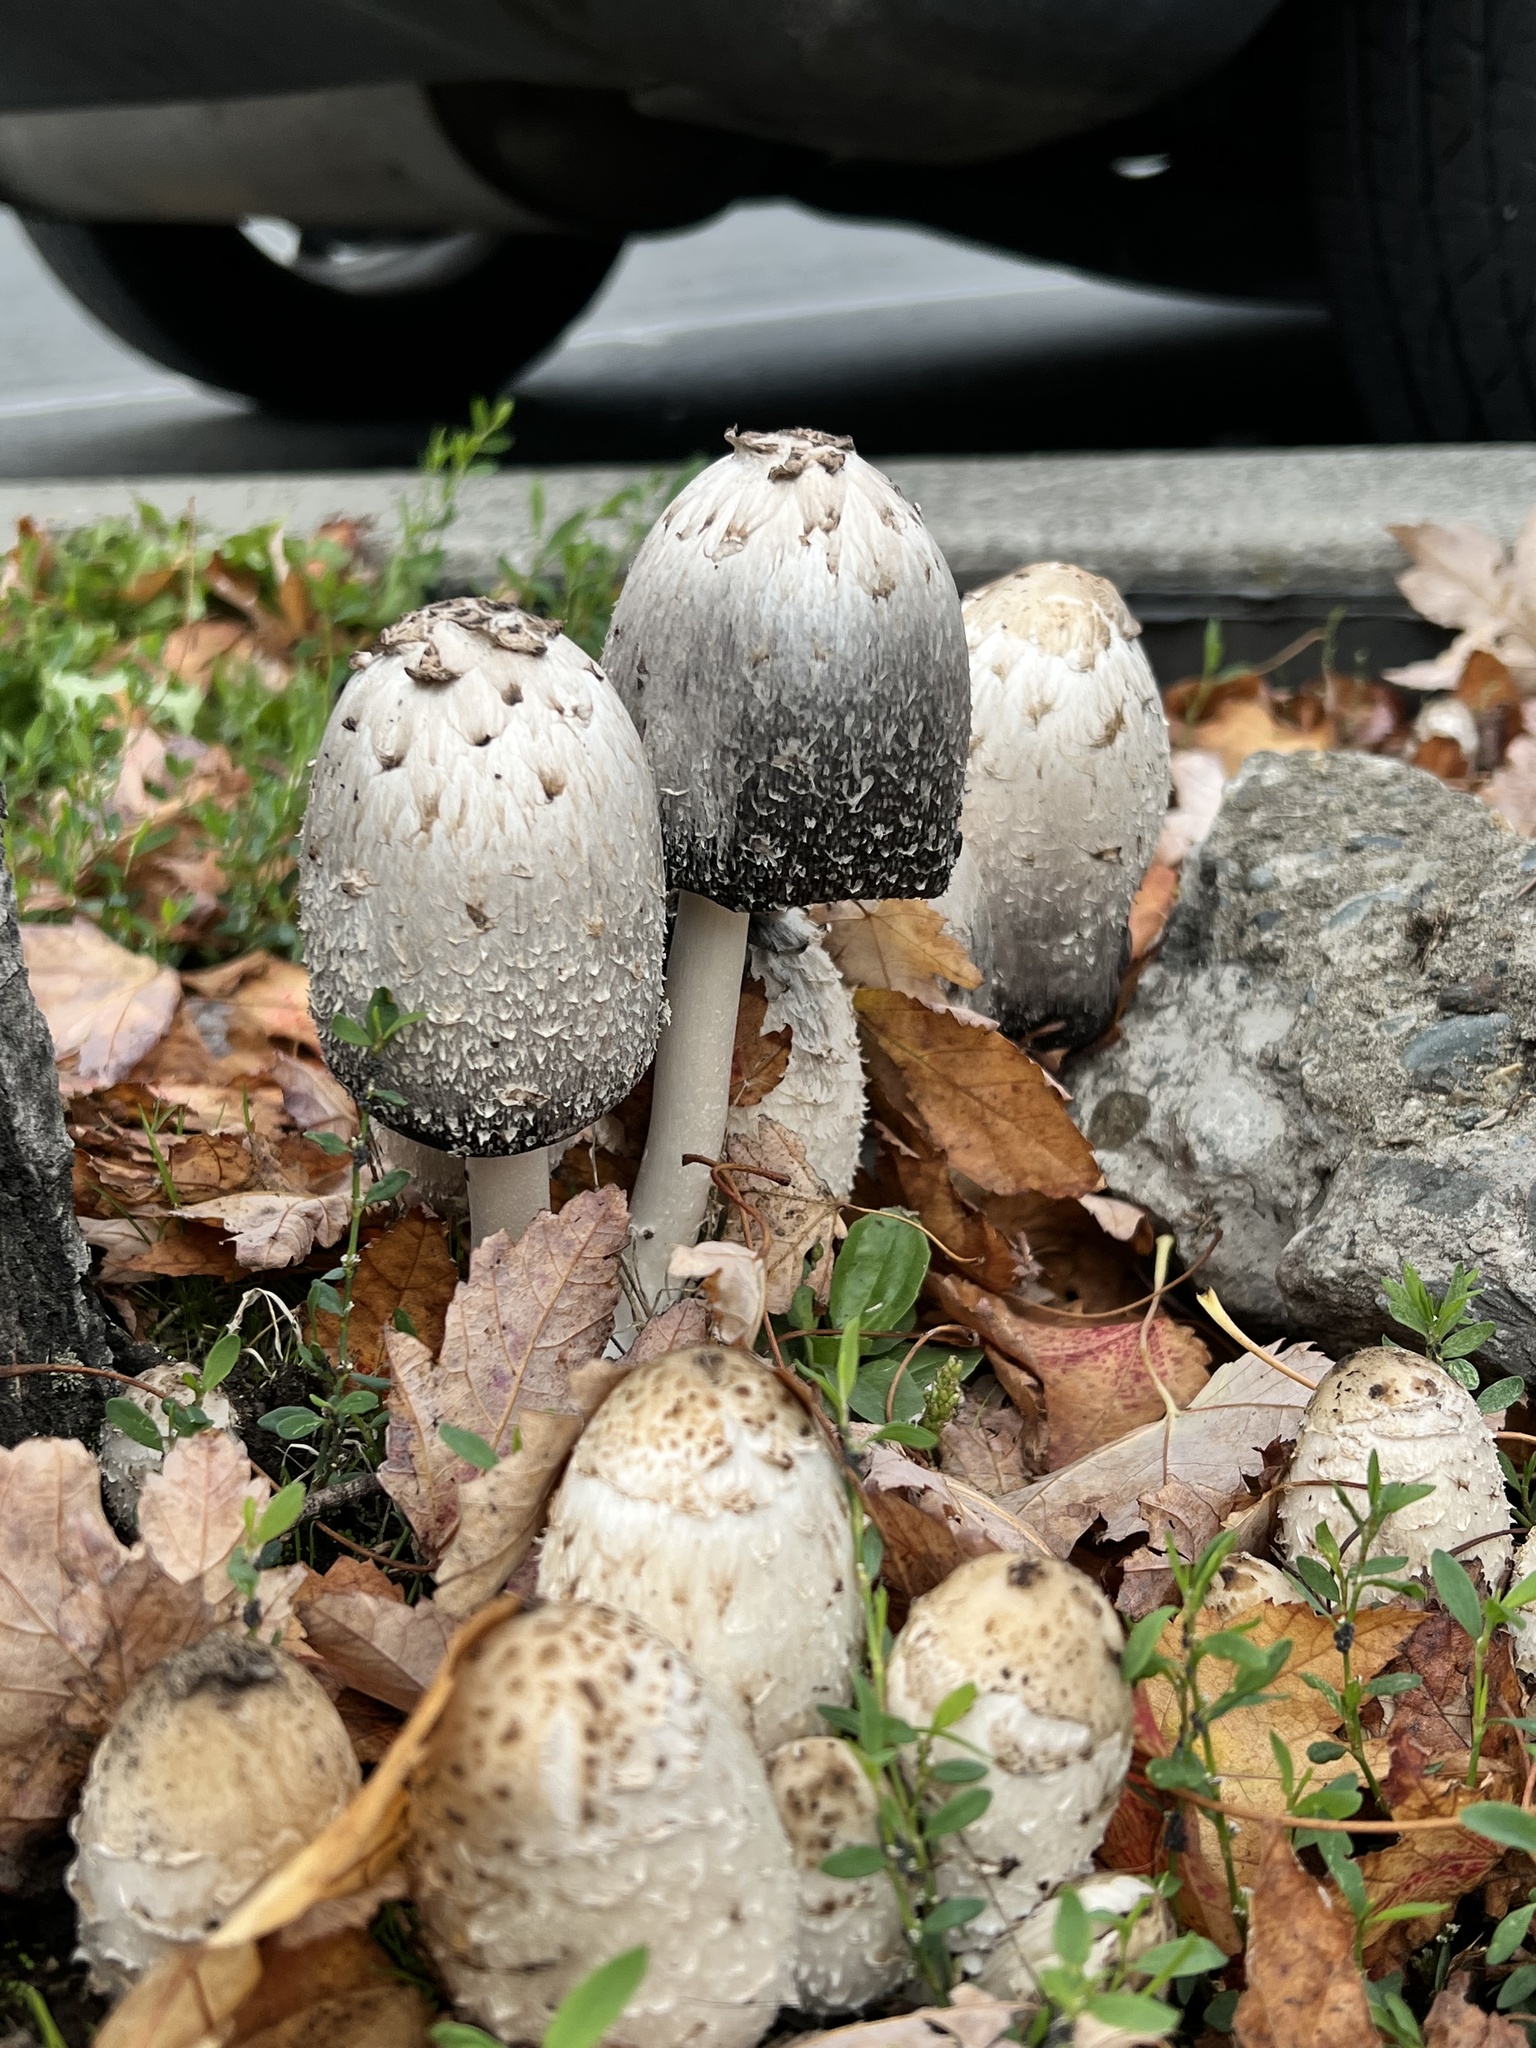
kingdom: Fungi
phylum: Basidiomycota
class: Agaricomycetes
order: Agaricales
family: Agaricaceae
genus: Coprinus
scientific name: Coprinus comatus
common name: Lawyer's wig
